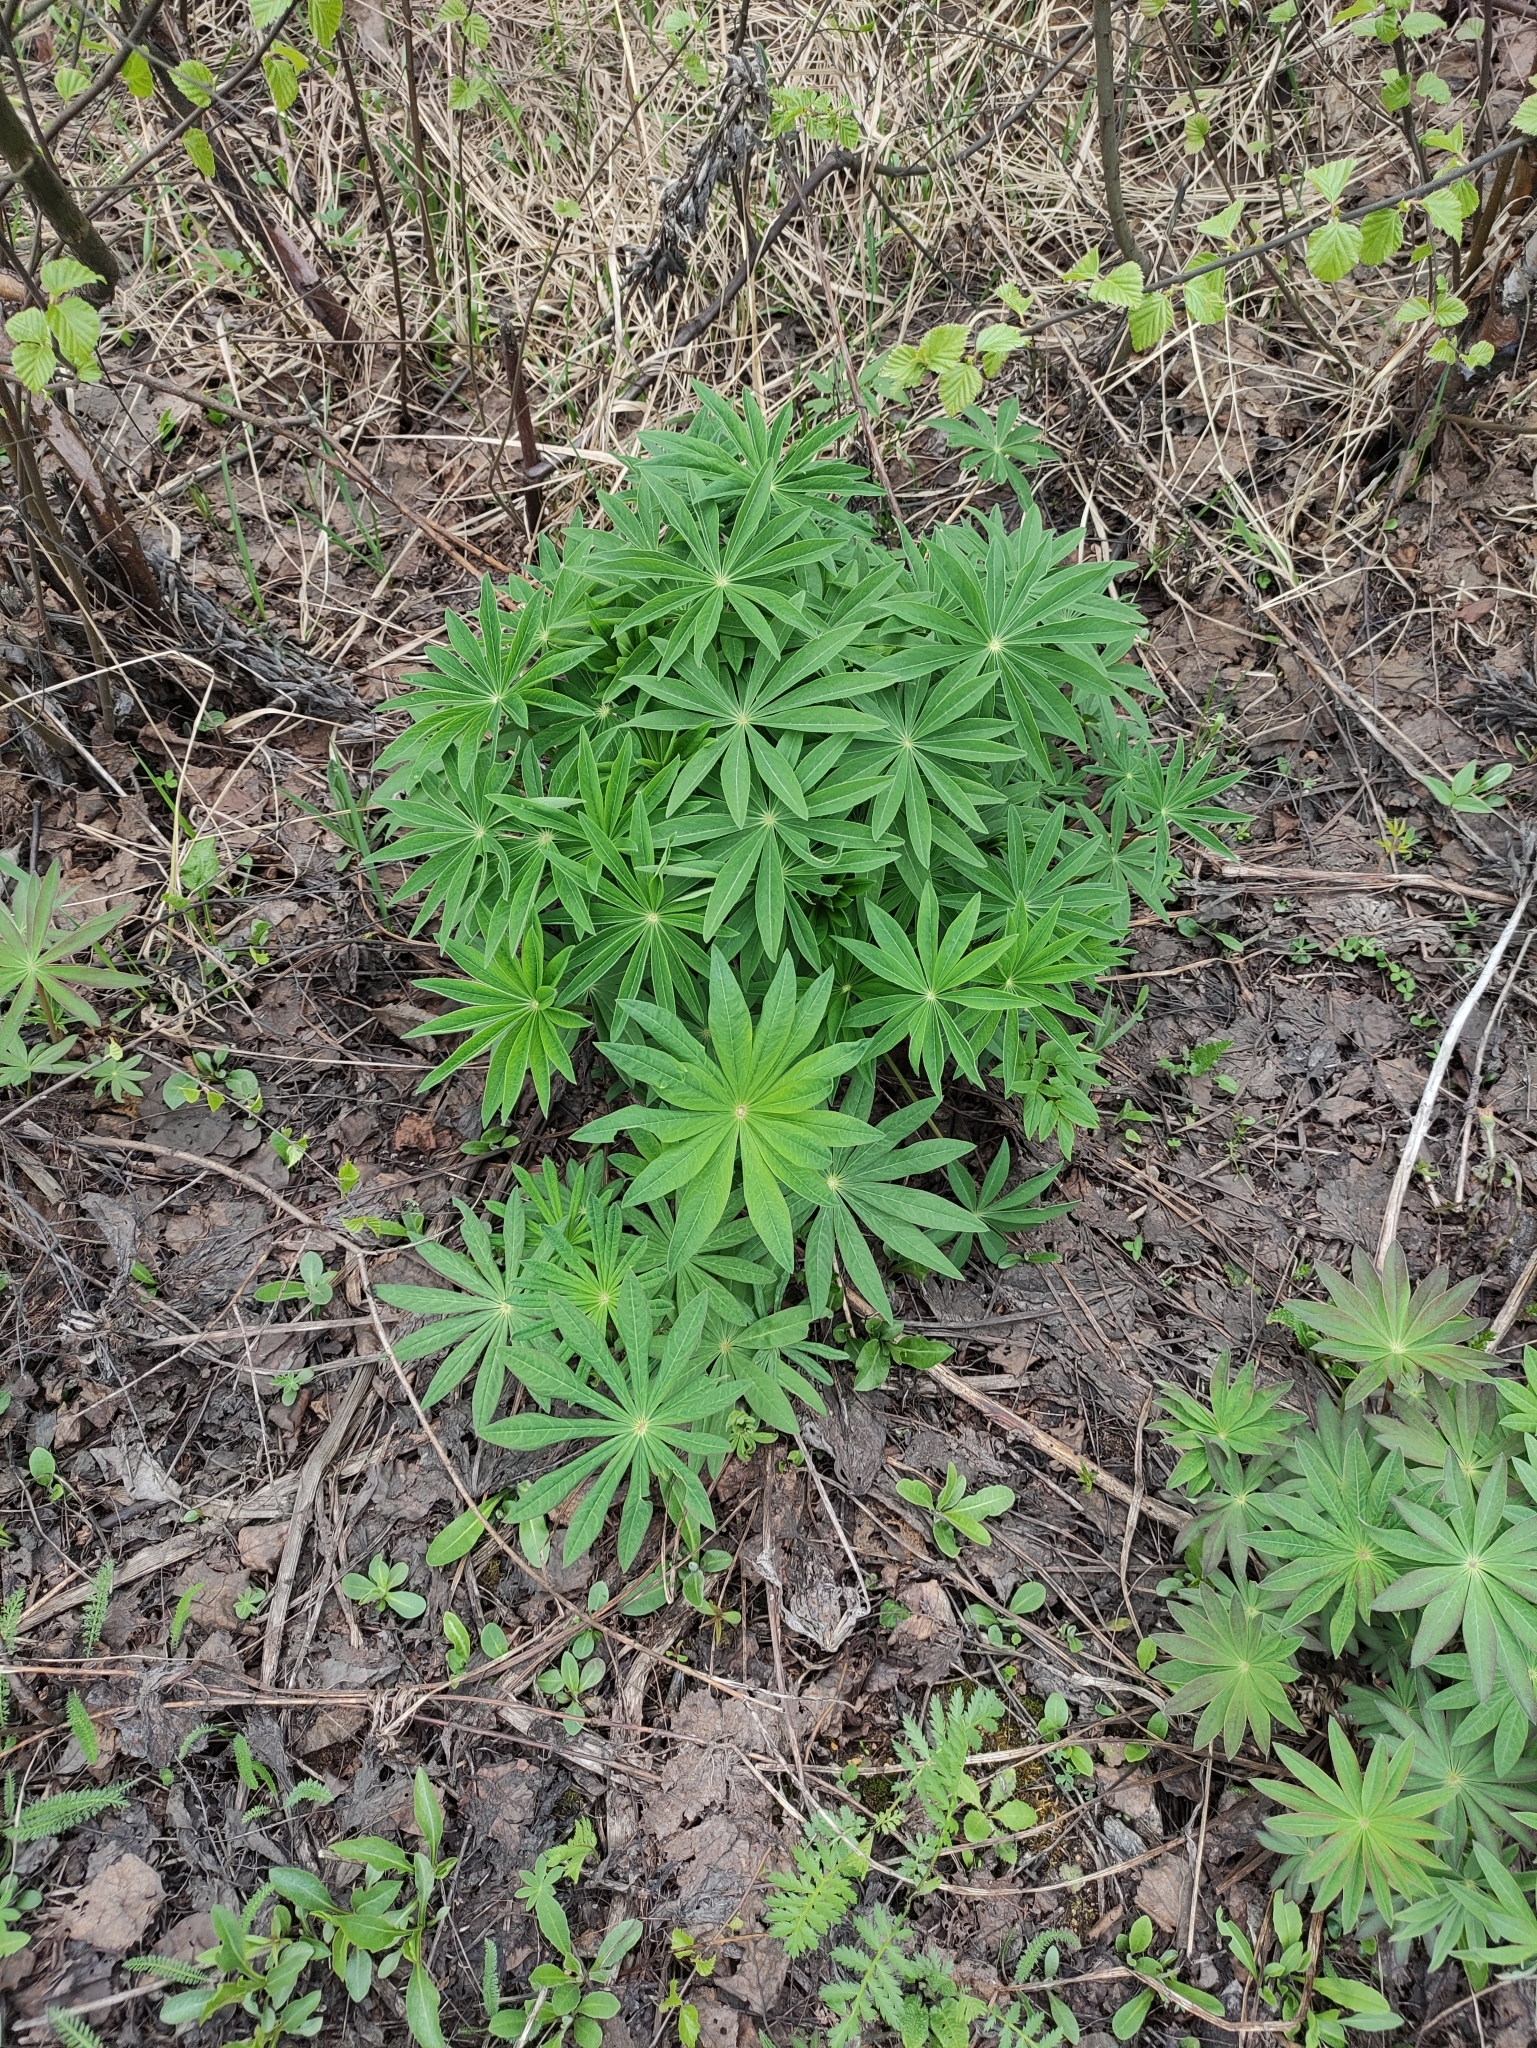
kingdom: Plantae
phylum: Tracheophyta
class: Magnoliopsida
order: Fabales
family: Fabaceae
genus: Lupinus
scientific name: Lupinus polyphyllus
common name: Garden lupin
